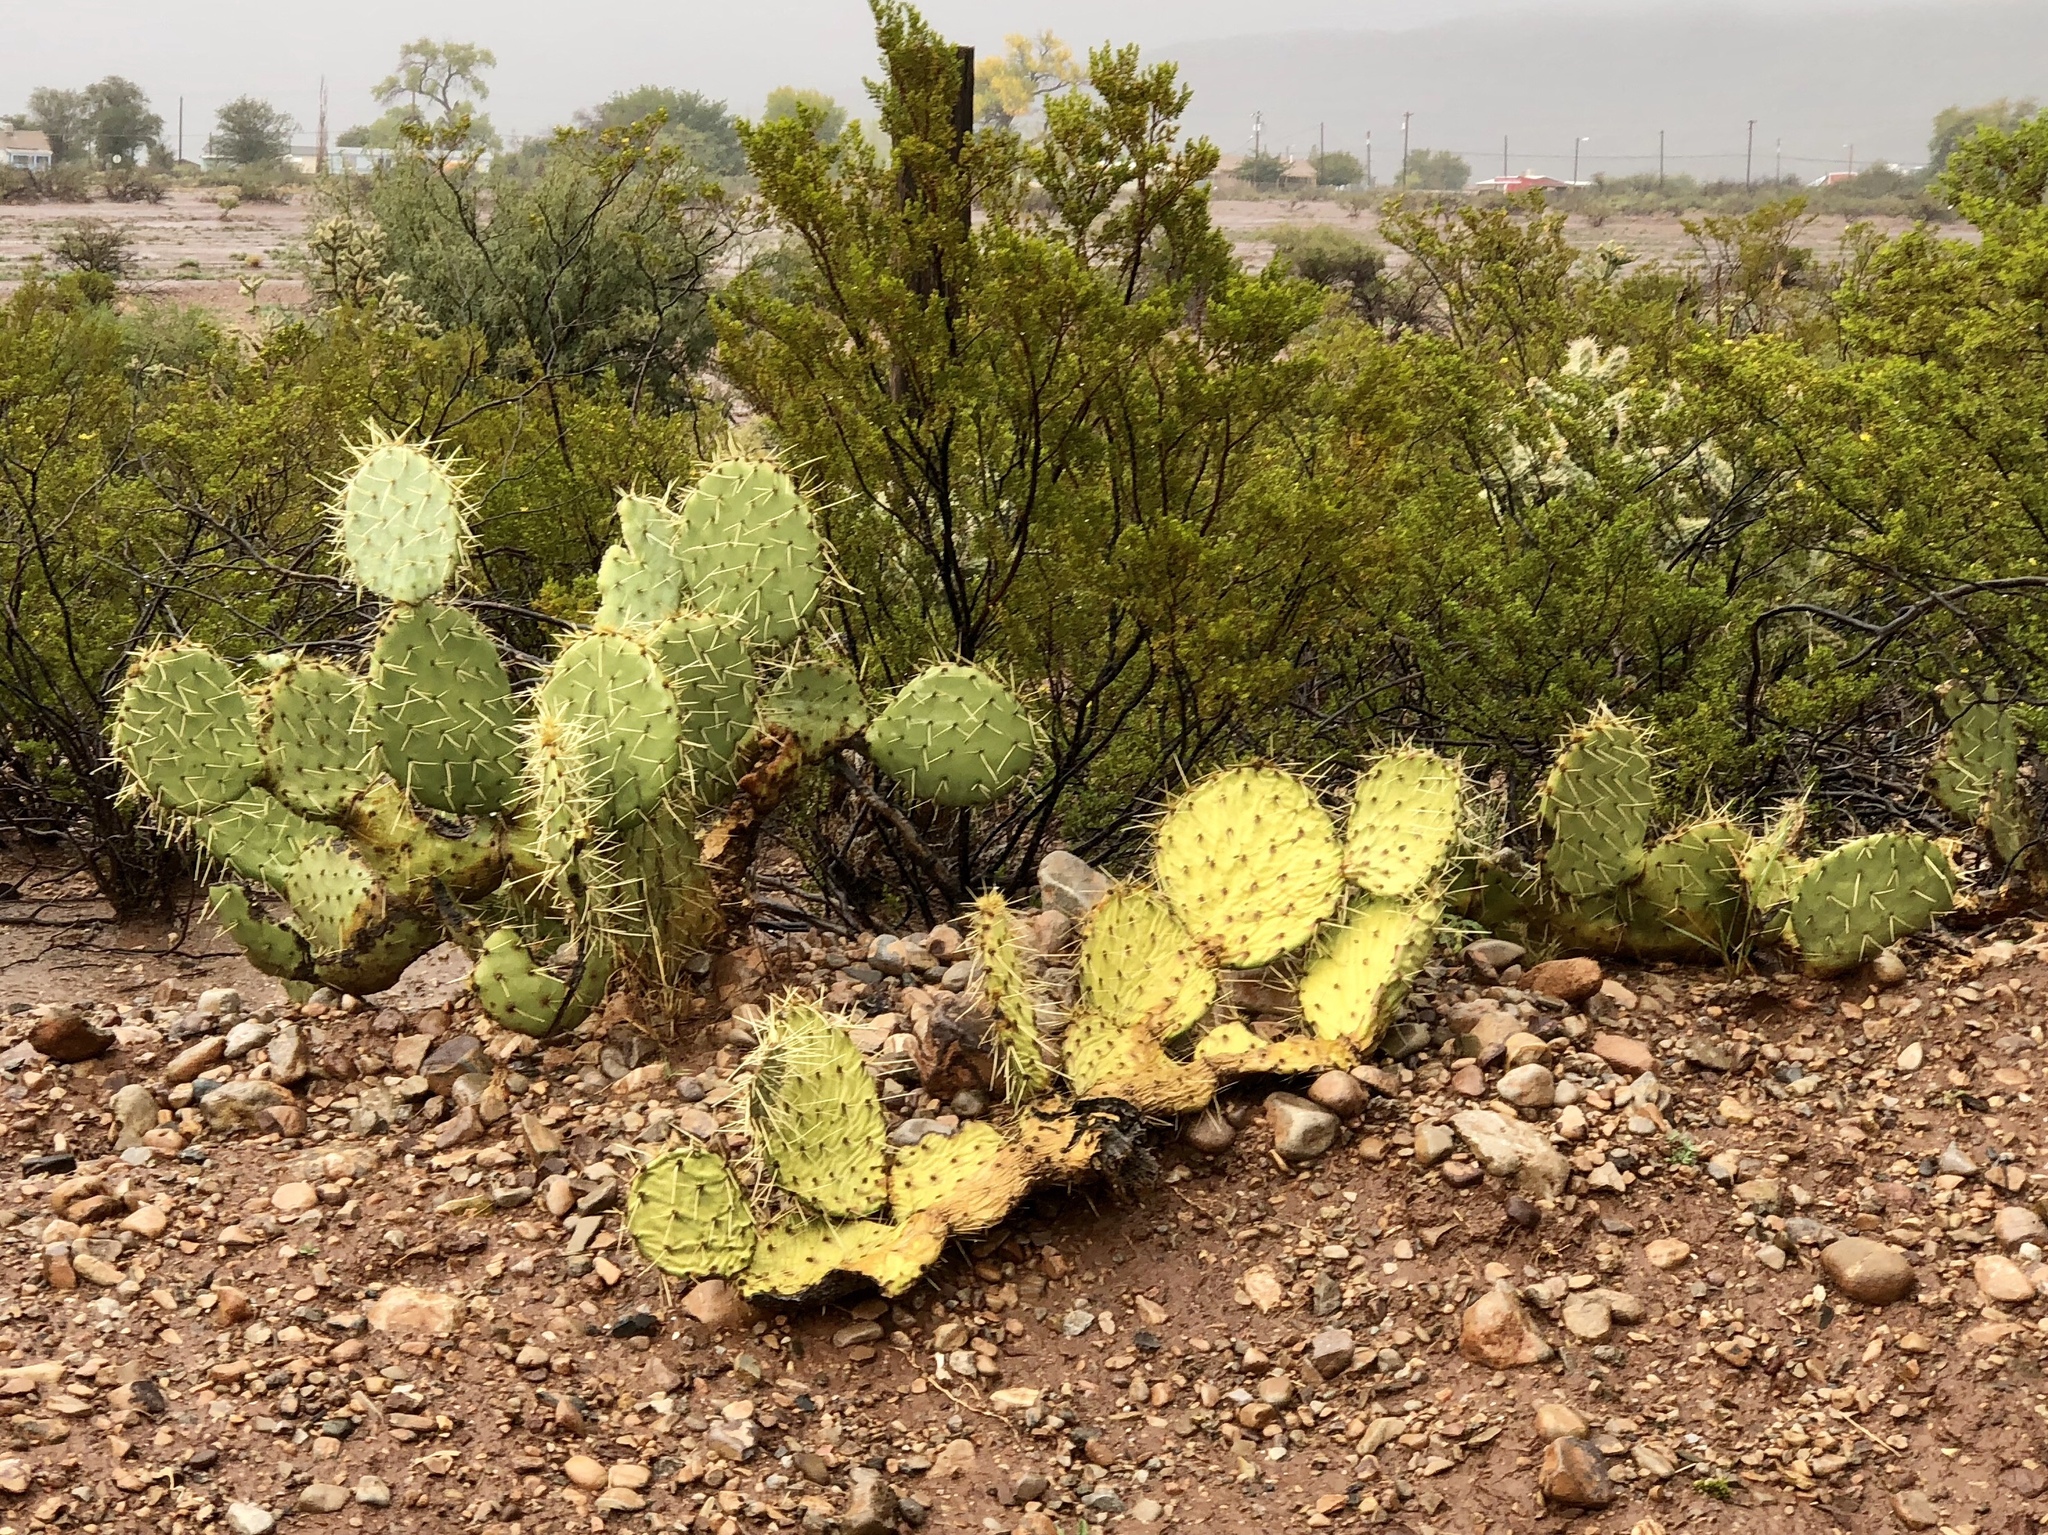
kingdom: Plantae
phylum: Tracheophyta
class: Magnoliopsida
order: Caryophyllales
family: Cactaceae
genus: Opuntia
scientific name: Opuntia engelmannii
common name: Cactus-apple
